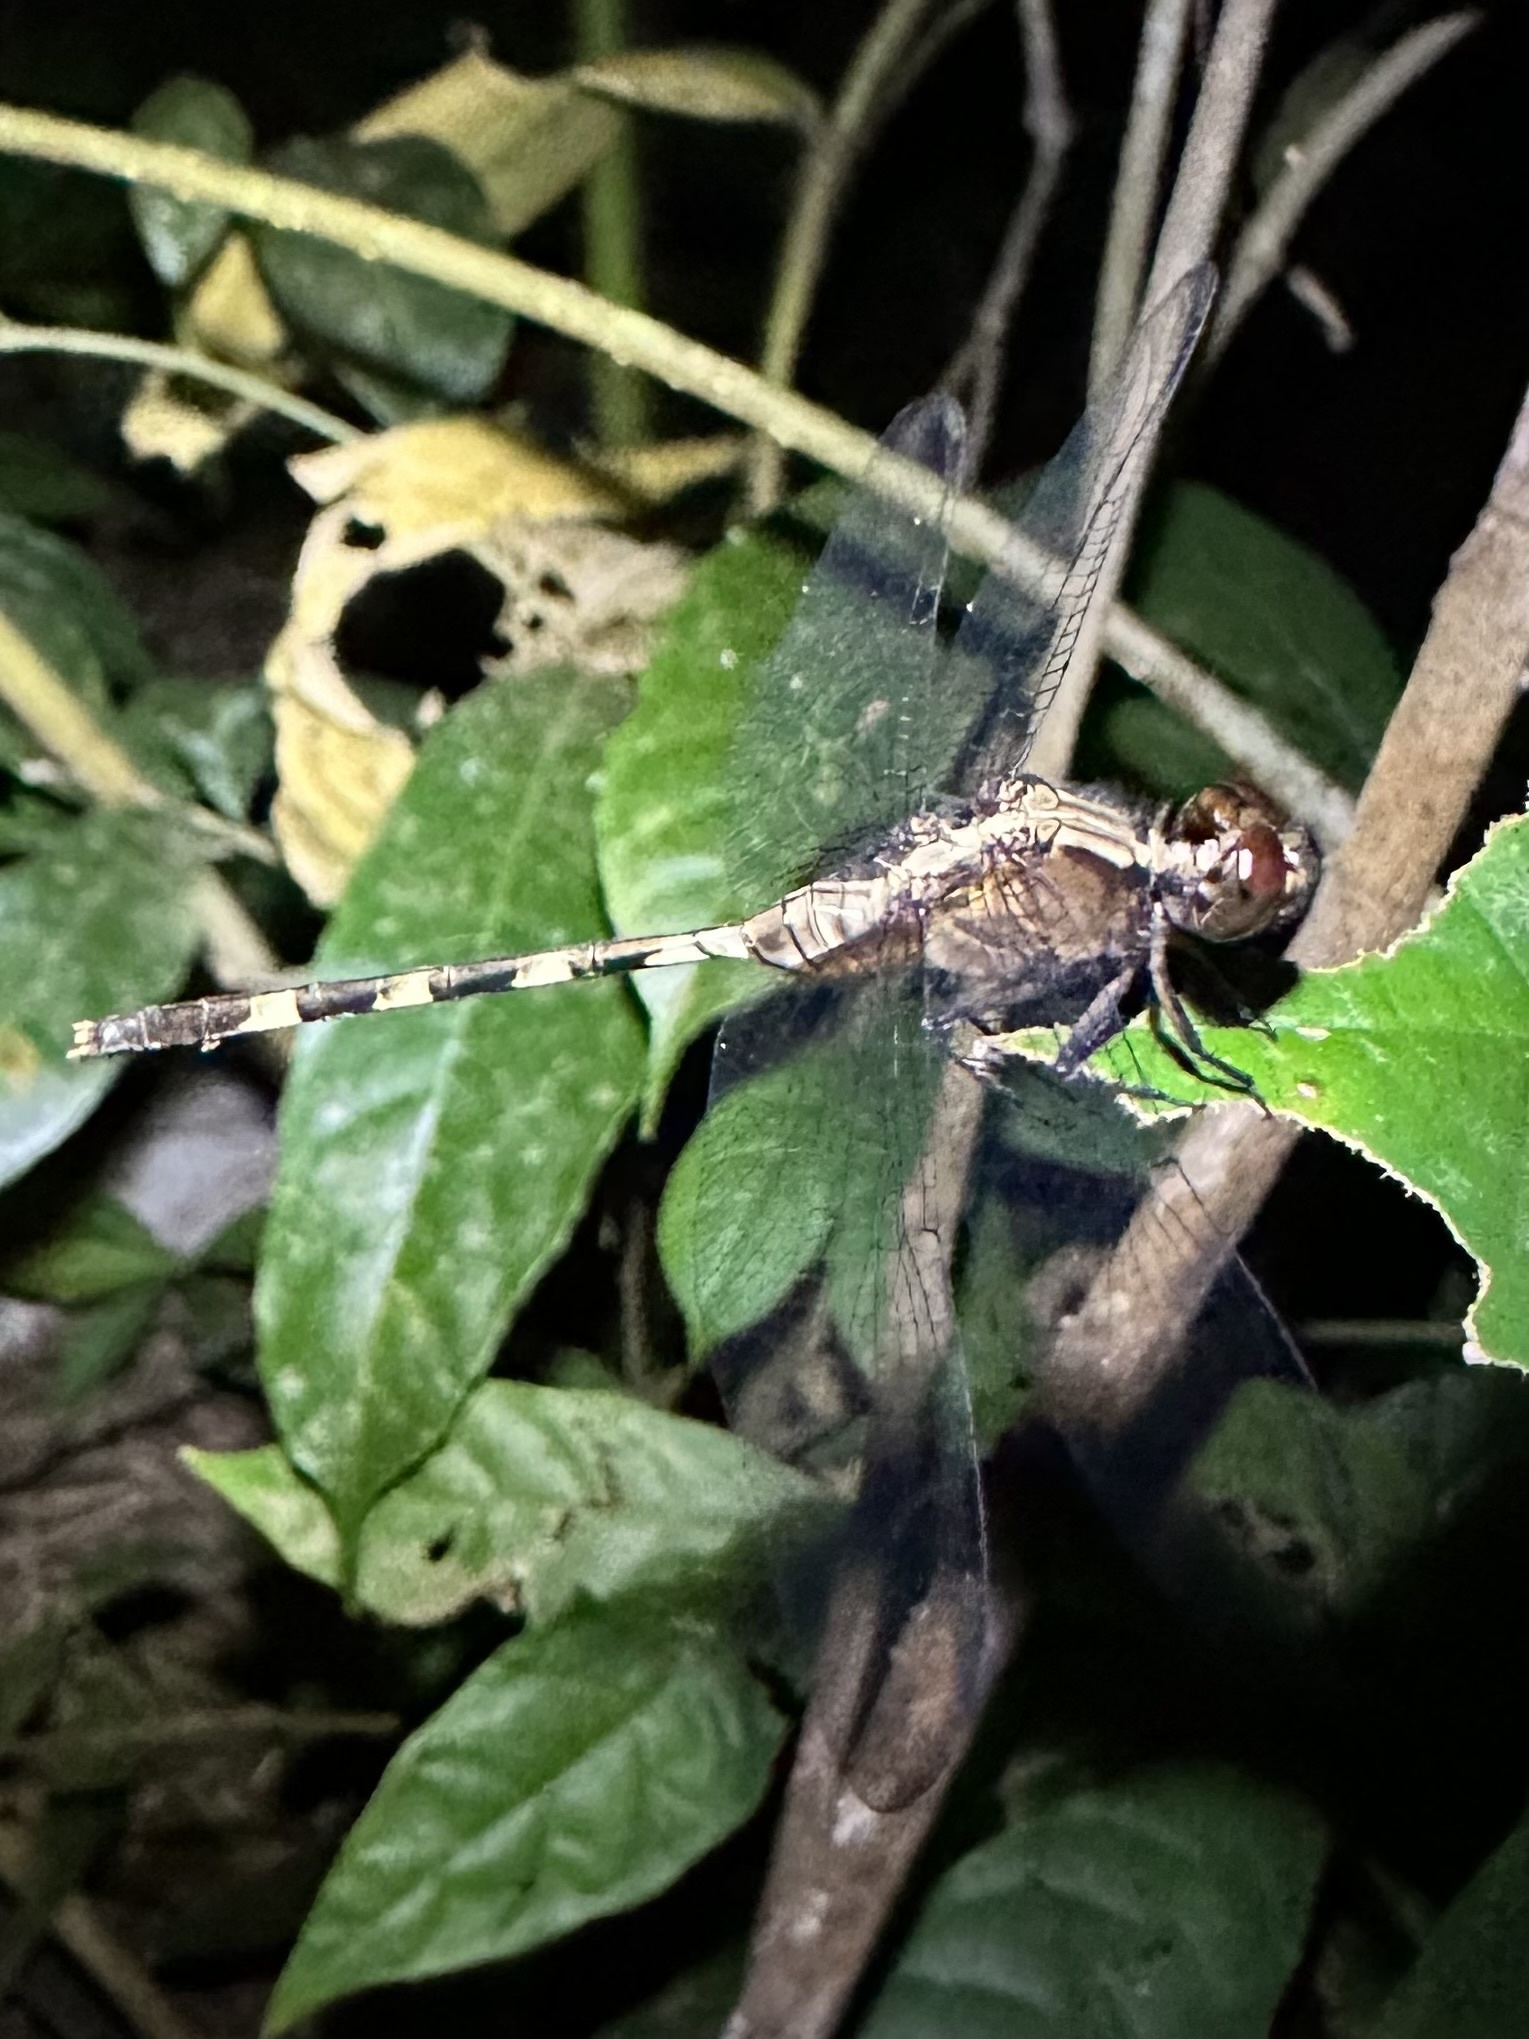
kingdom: Animalia
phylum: Arthropoda
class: Insecta
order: Odonata
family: Libellulidae
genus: Erythemis
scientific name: Erythemis plebeja
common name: Pin-tailed pondhawk
